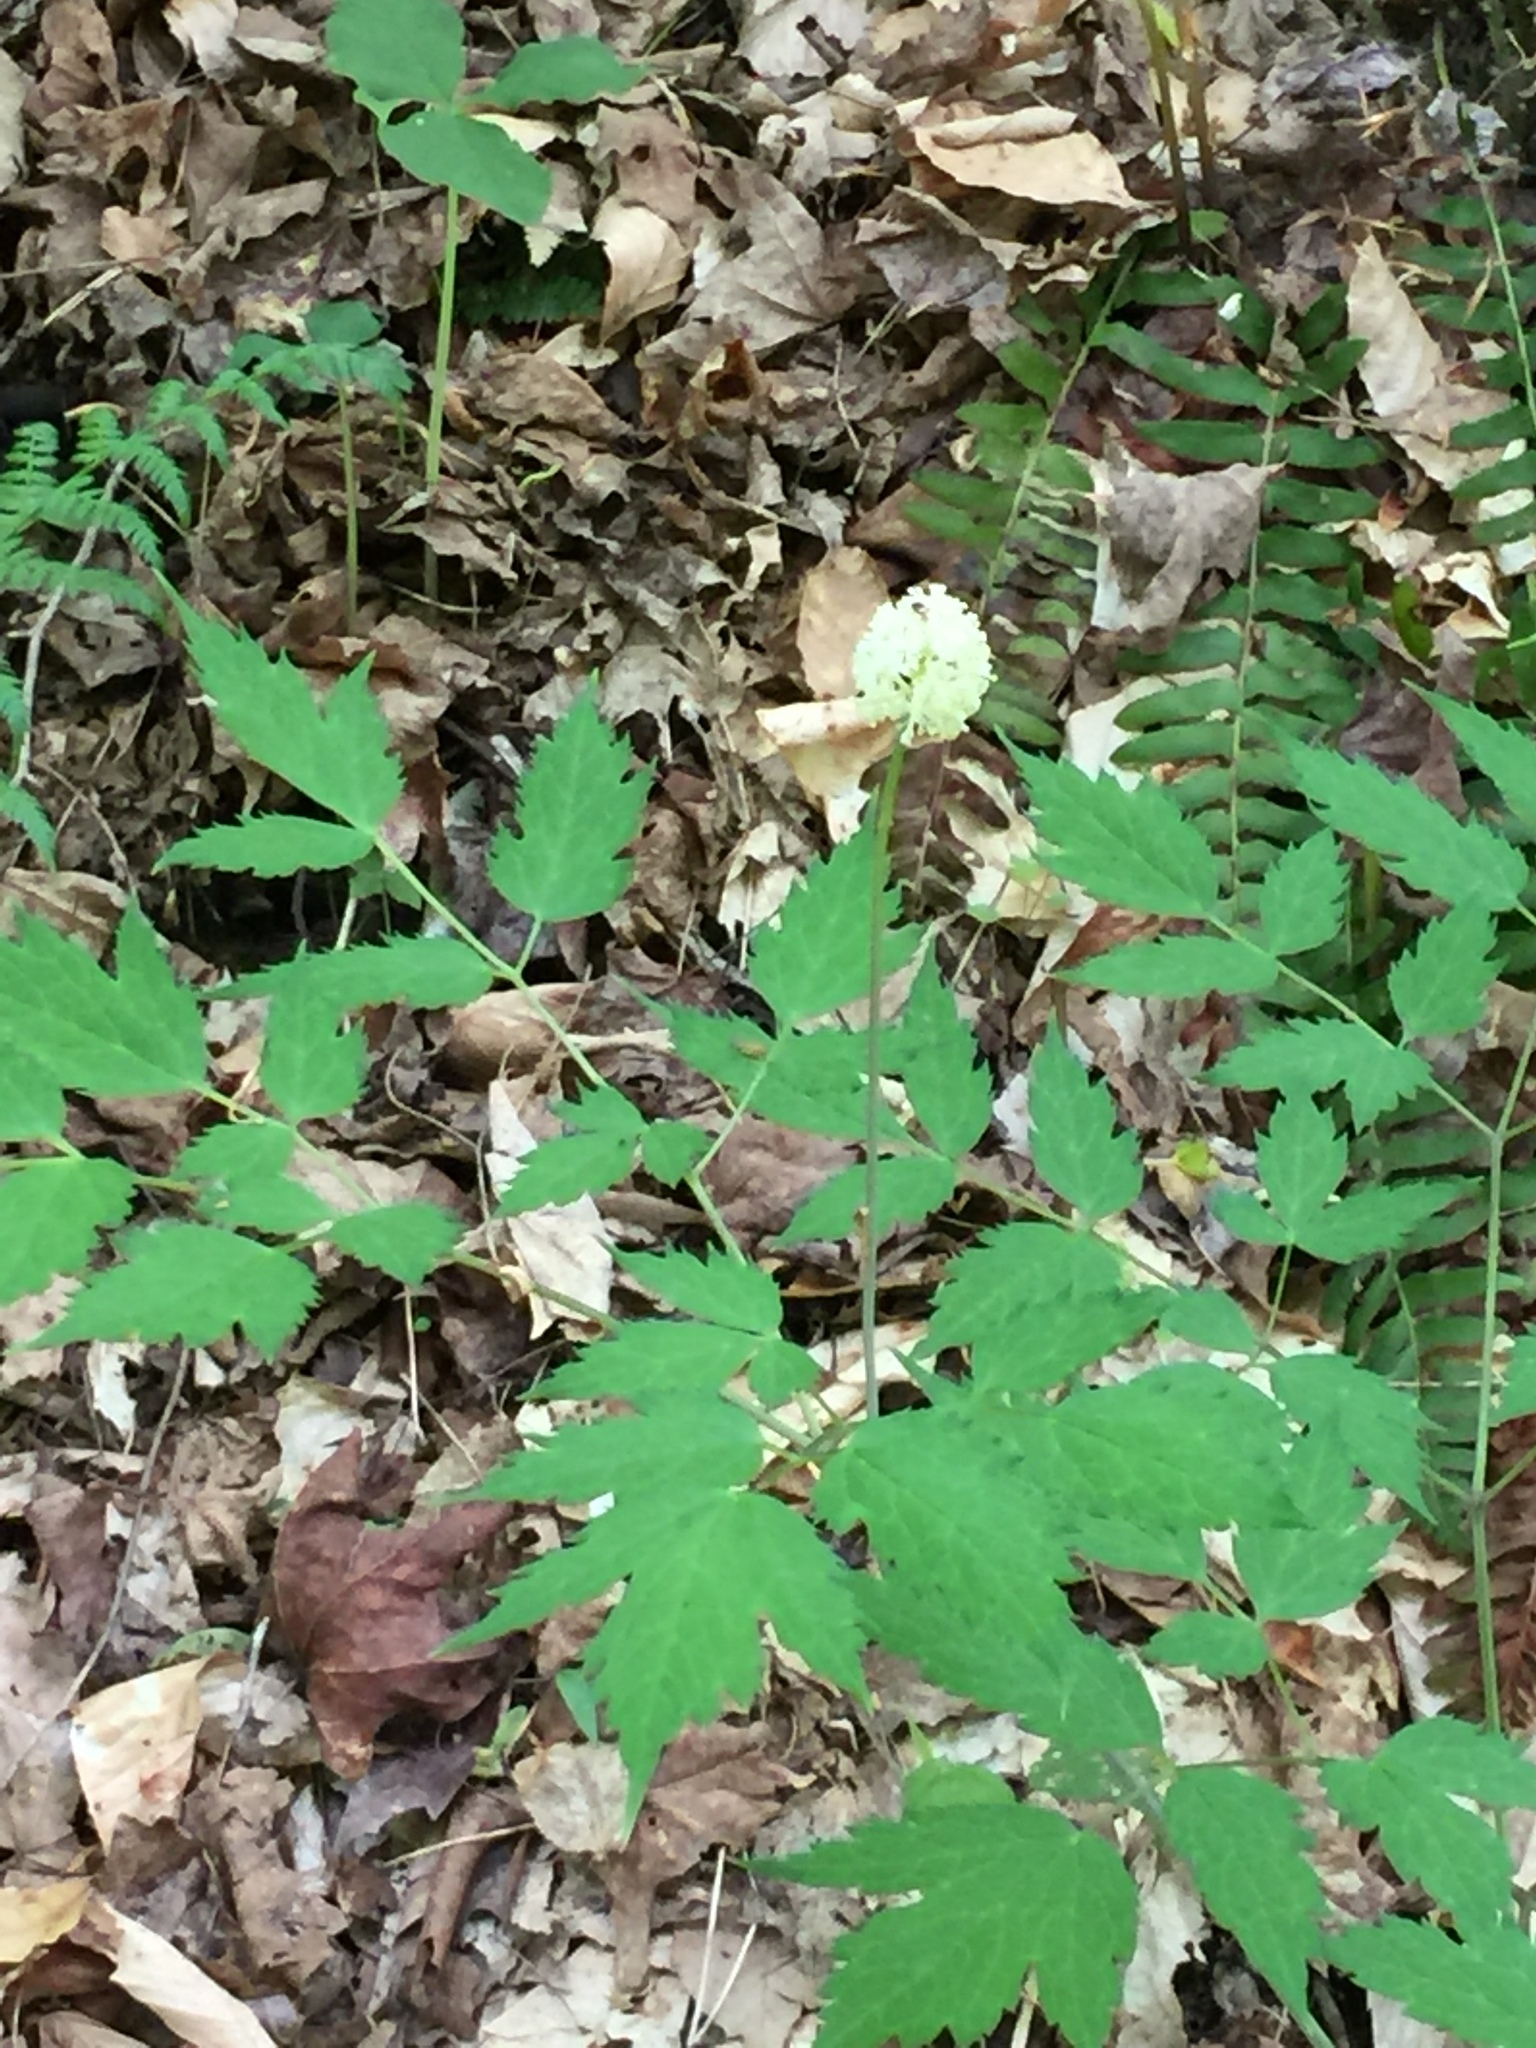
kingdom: Plantae
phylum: Tracheophyta
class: Magnoliopsida
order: Ranunculales
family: Ranunculaceae
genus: Actaea
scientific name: Actaea pachypoda
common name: Doll's-eyes
